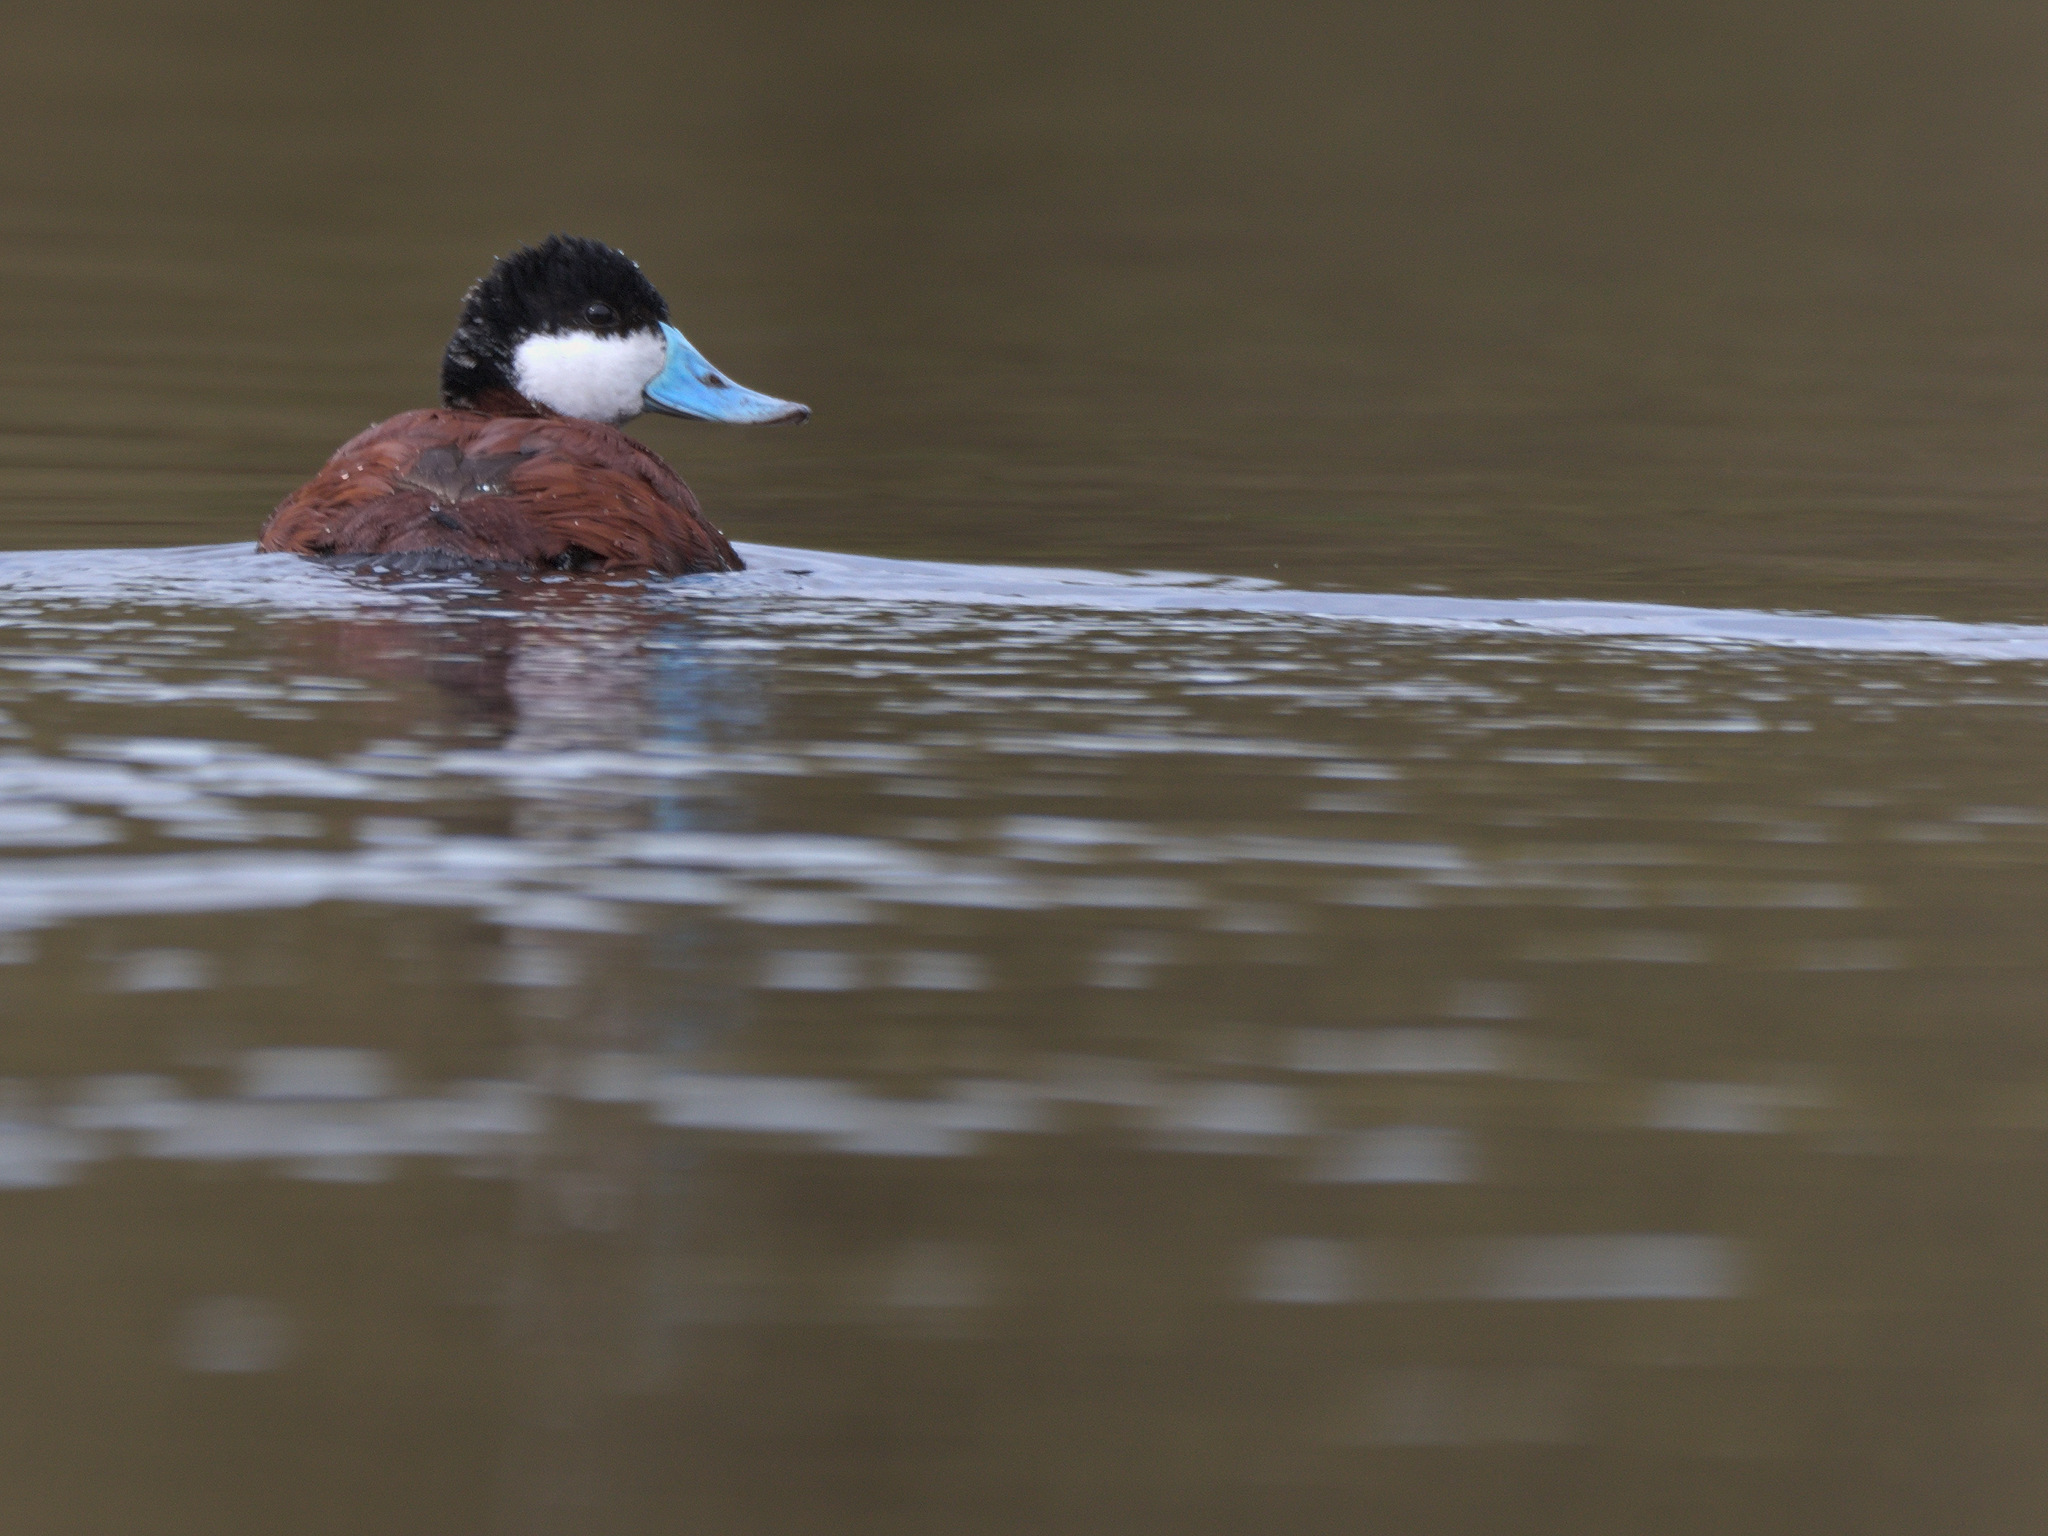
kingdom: Animalia
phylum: Chordata
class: Aves
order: Anseriformes
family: Anatidae
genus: Oxyura
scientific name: Oxyura jamaicensis
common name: Ruddy duck
